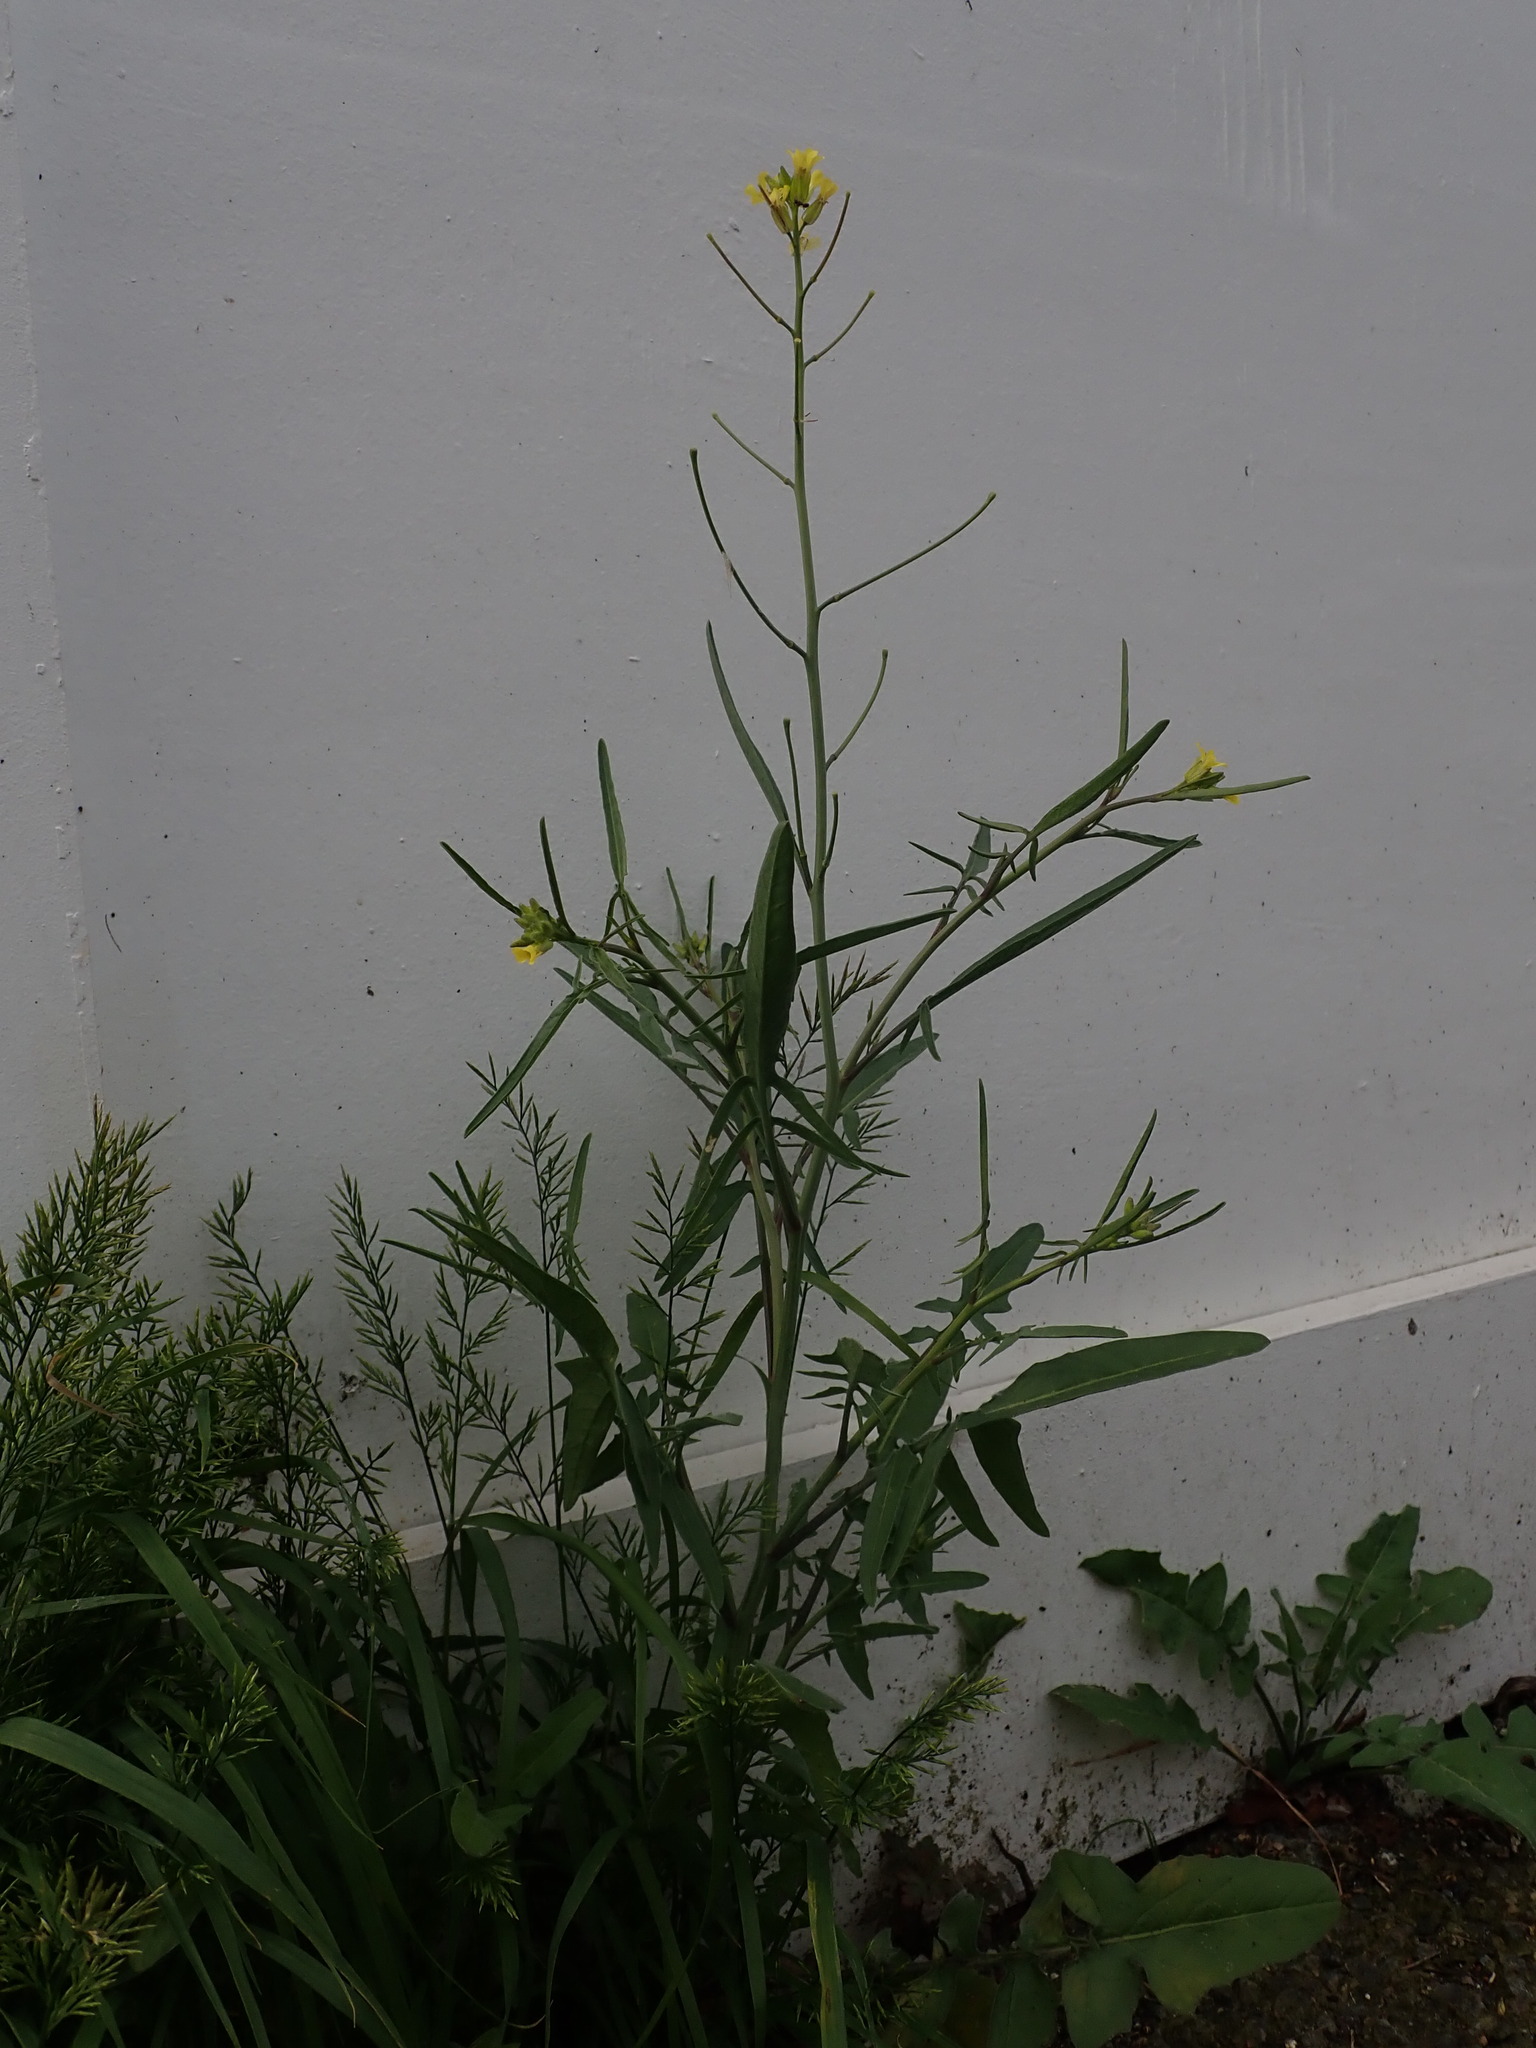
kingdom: Plantae
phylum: Tracheophyta
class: Magnoliopsida
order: Brassicales
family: Brassicaceae
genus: Sisymbrium
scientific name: Sisymbrium orientale
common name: Eastern rocket
